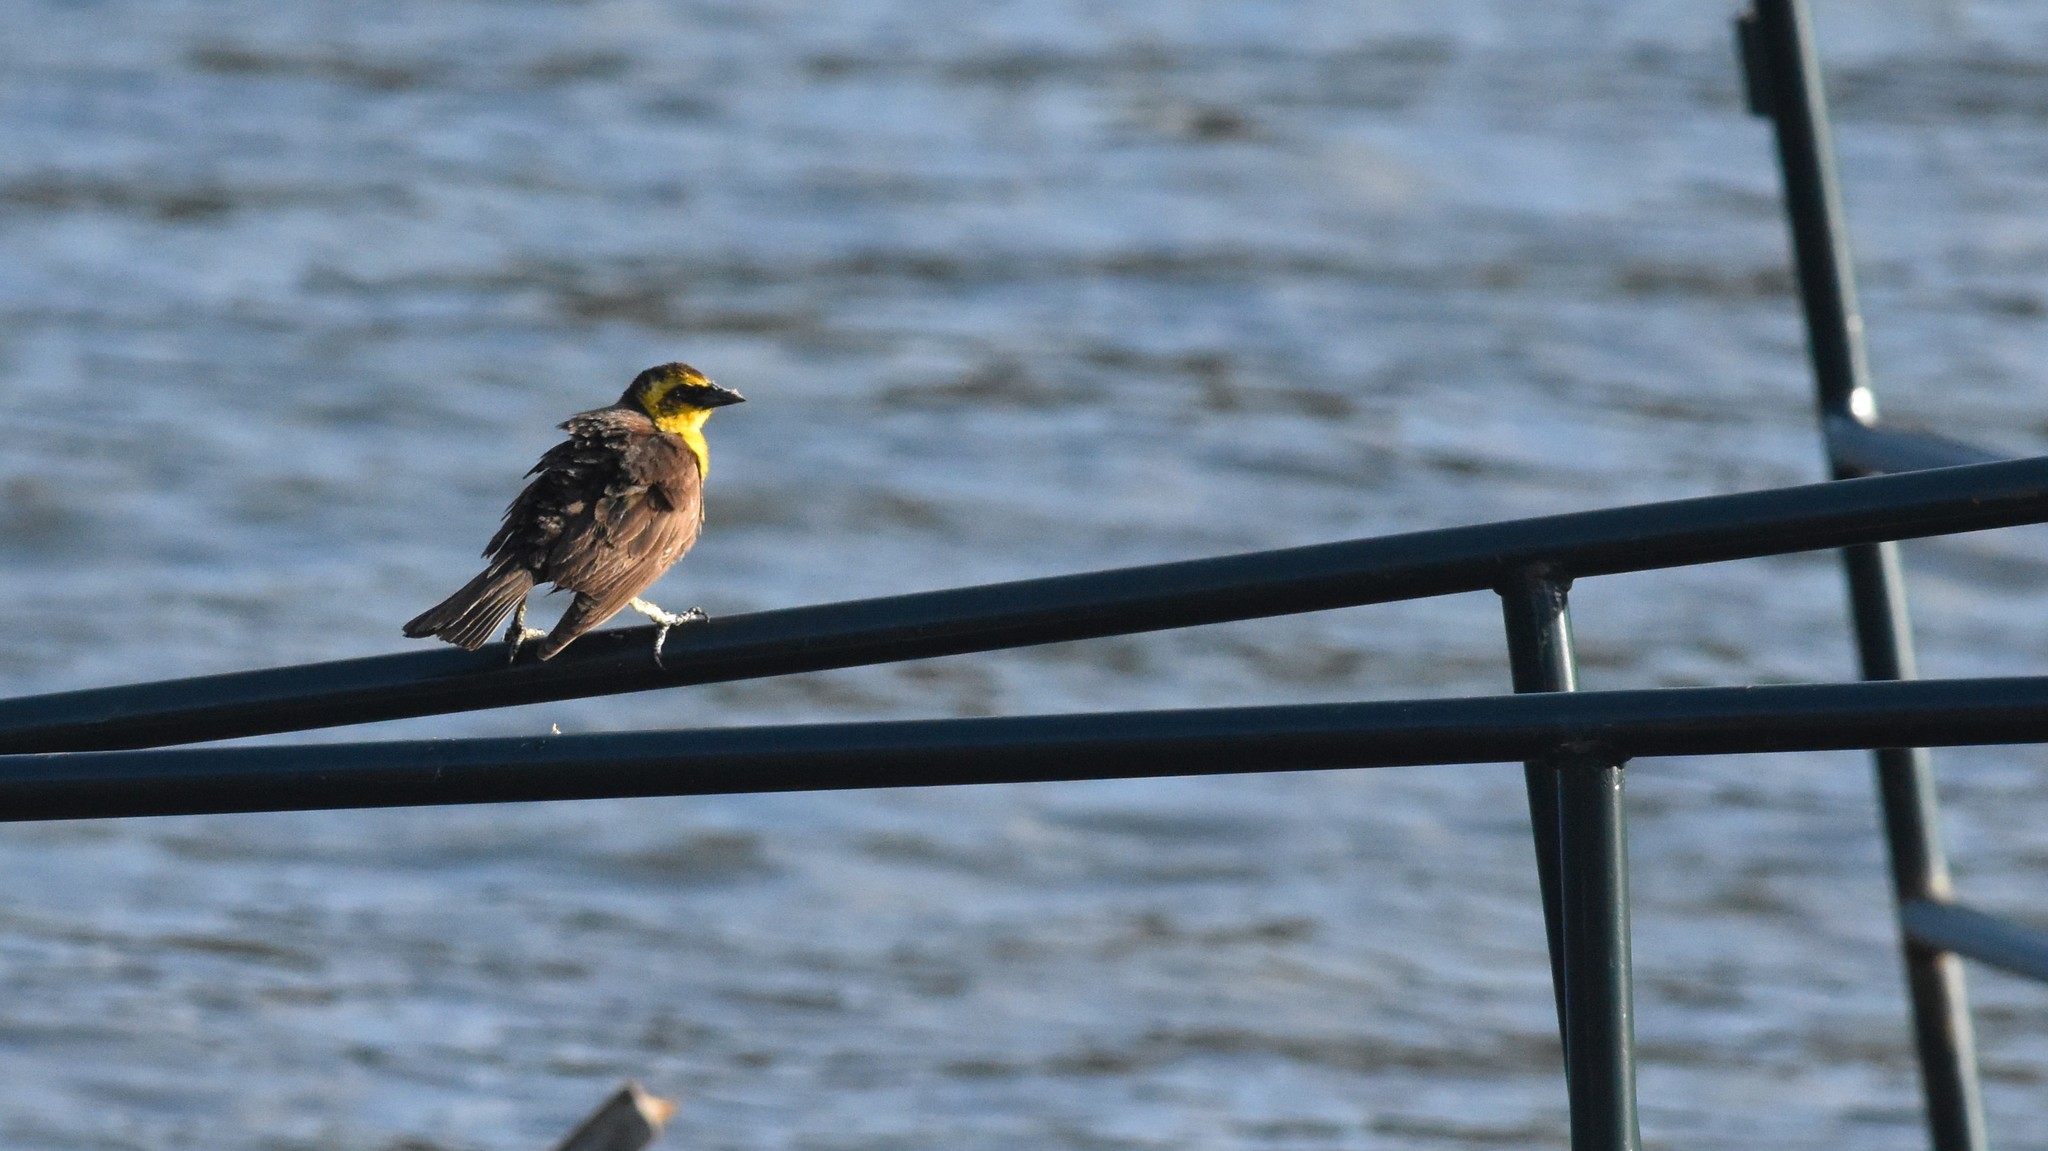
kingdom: Animalia
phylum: Chordata
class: Aves
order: Passeriformes
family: Icteridae
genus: Xanthocephalus
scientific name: Xanthocephalus xanthocephalus
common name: Yellow-headed blackbird
